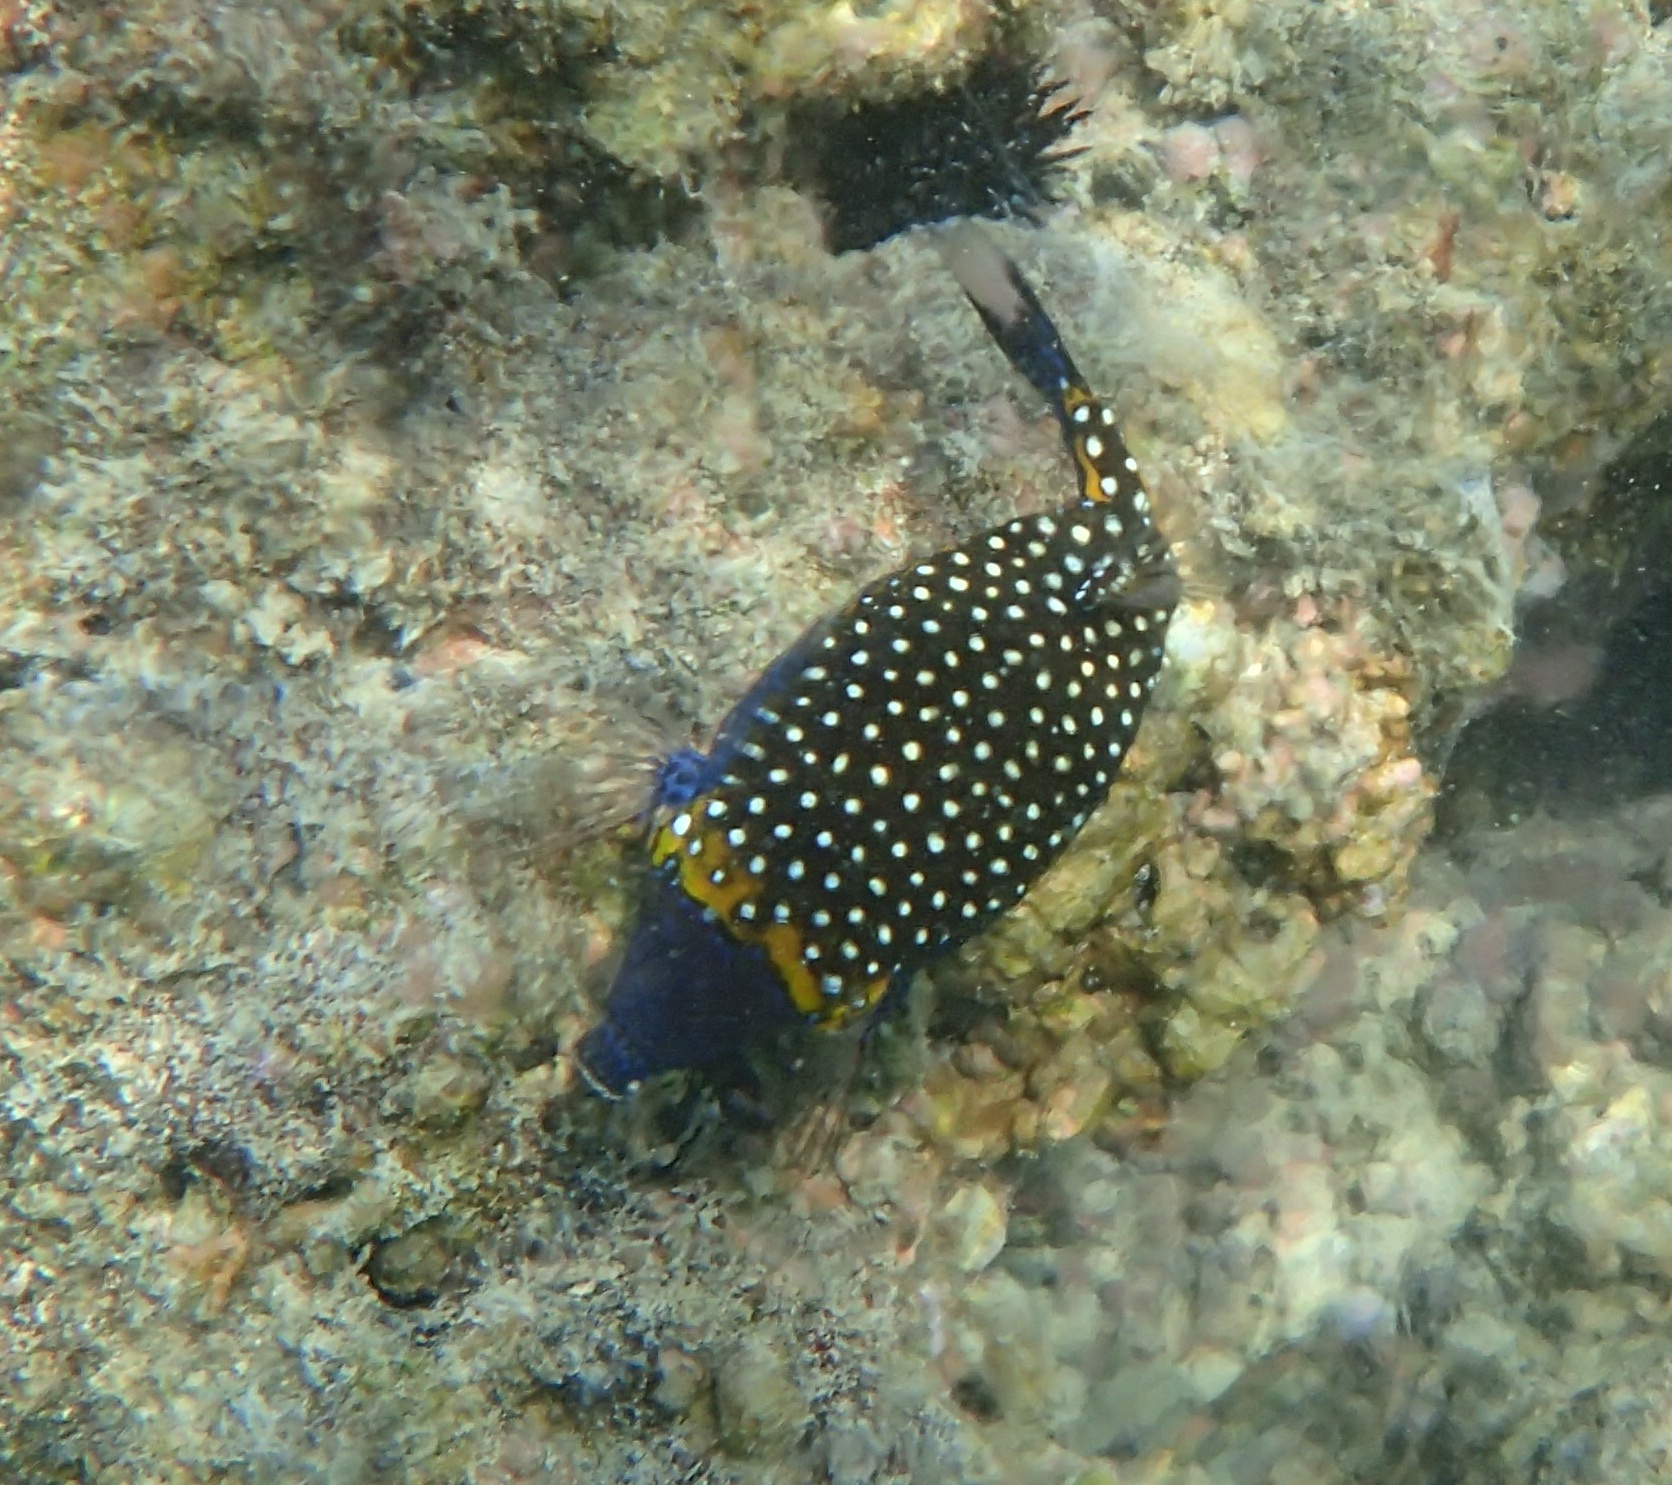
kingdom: Animalia
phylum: Chordata
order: Tetraodontiformes
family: Ostraciidae
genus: Ostracion
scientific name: Ostracion meleagris
